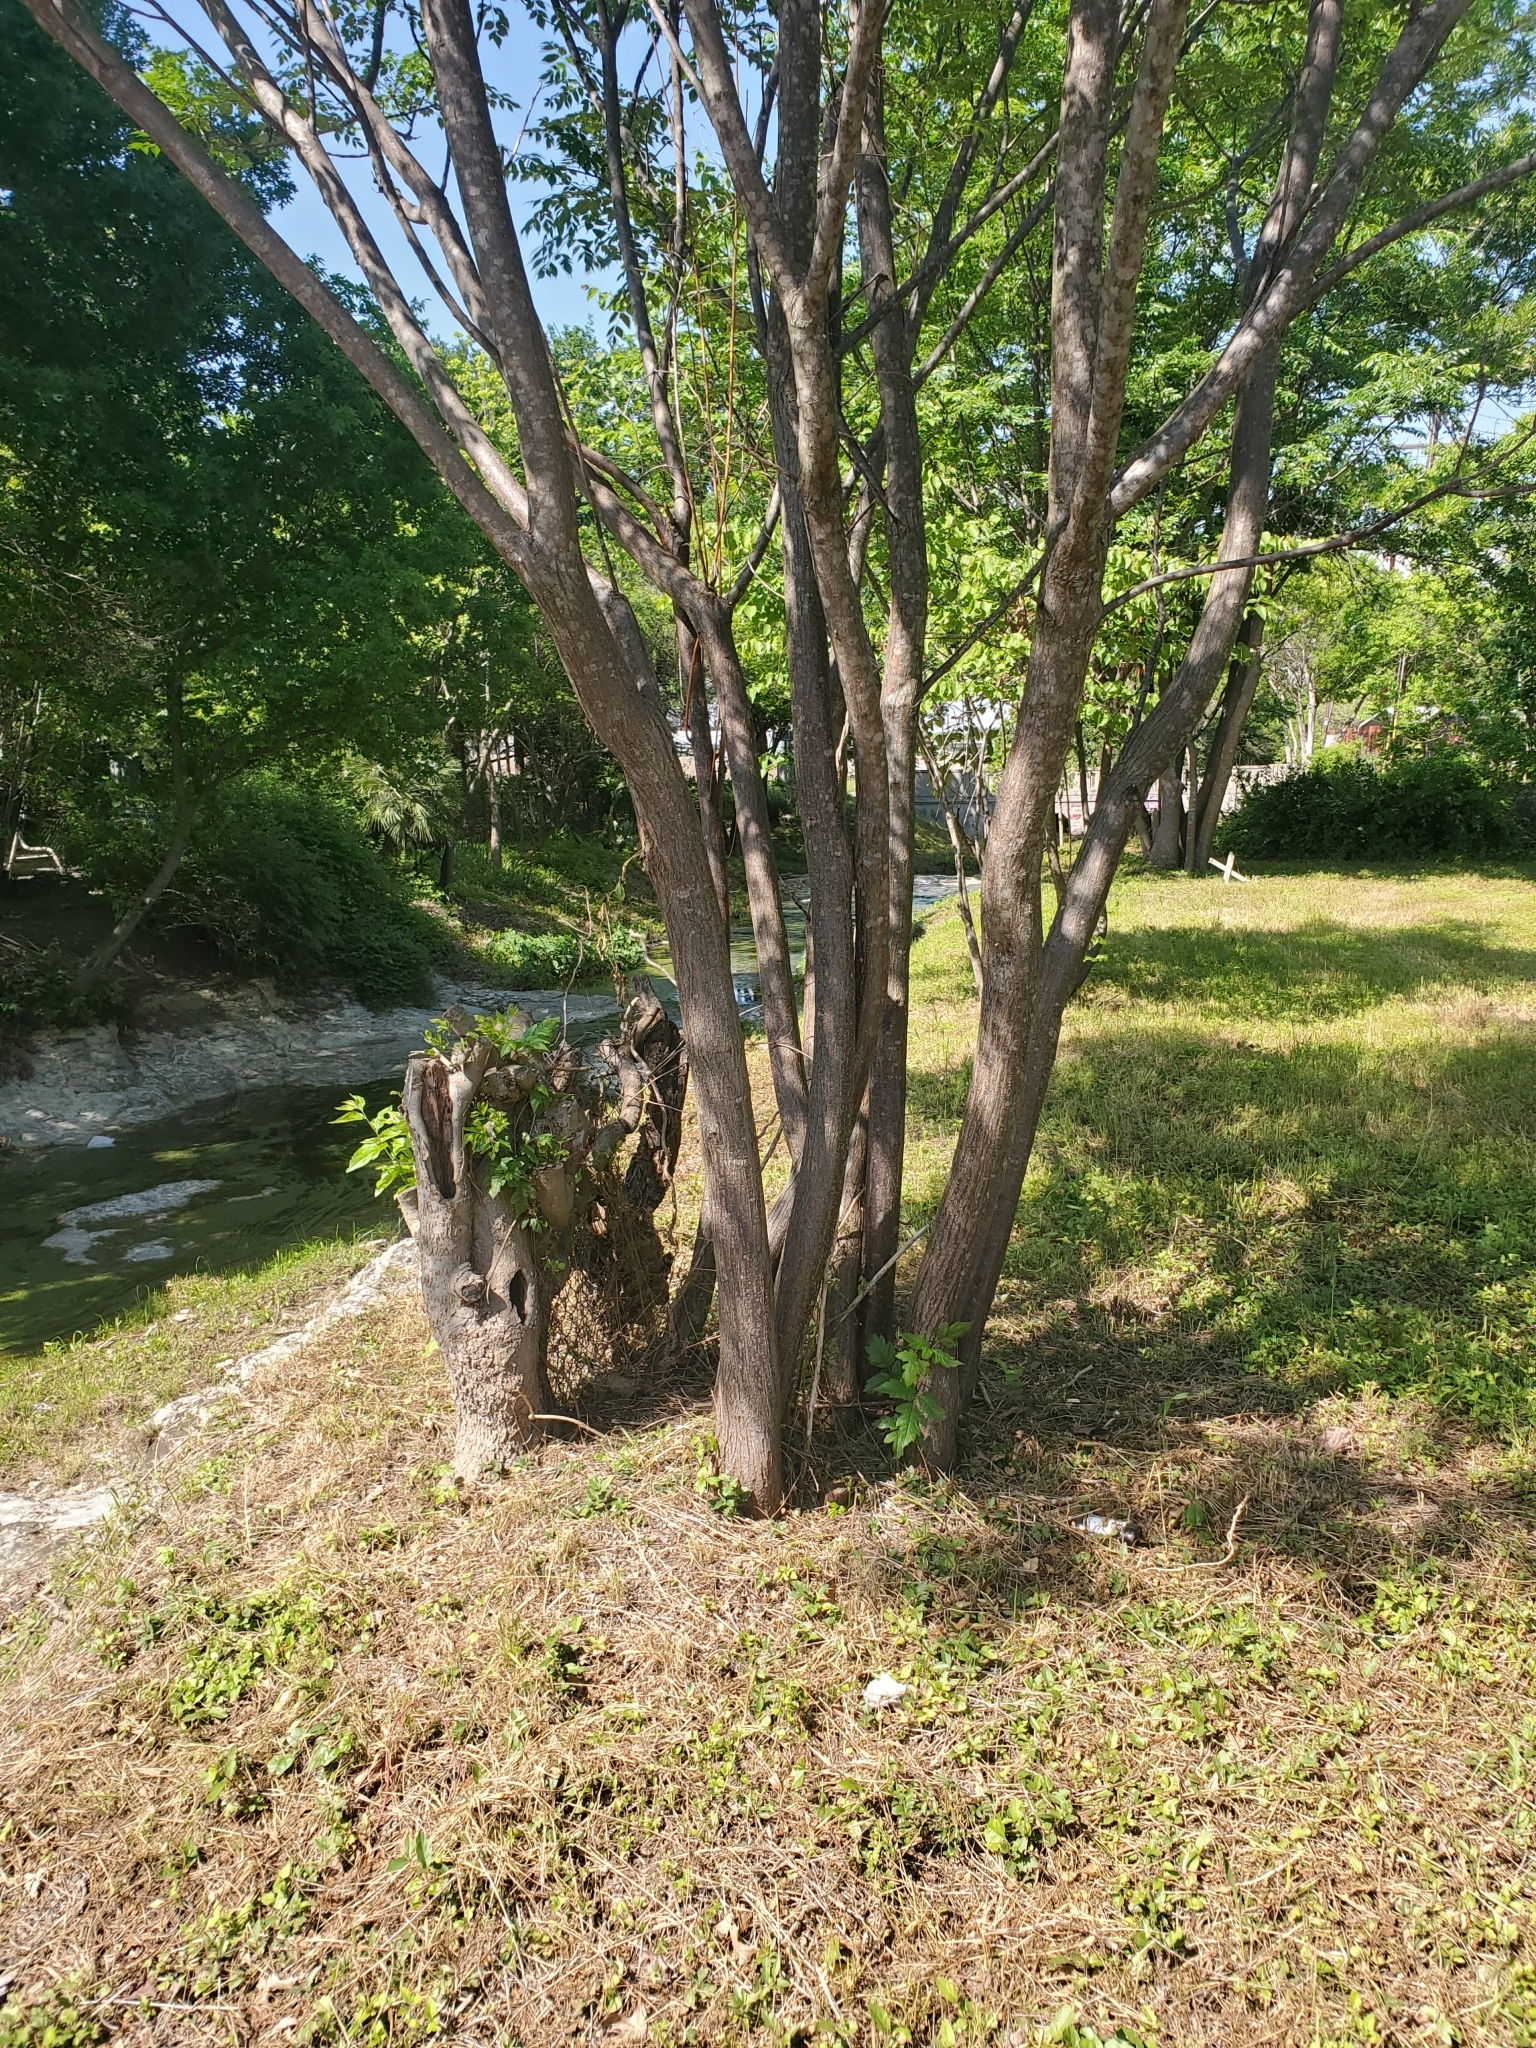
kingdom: Plantae
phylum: Tracheophyta
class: Magnoliopsida
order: Sapindales
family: Meliaceae
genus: Melia
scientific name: Melia azedarach
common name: Chinaberrytree
